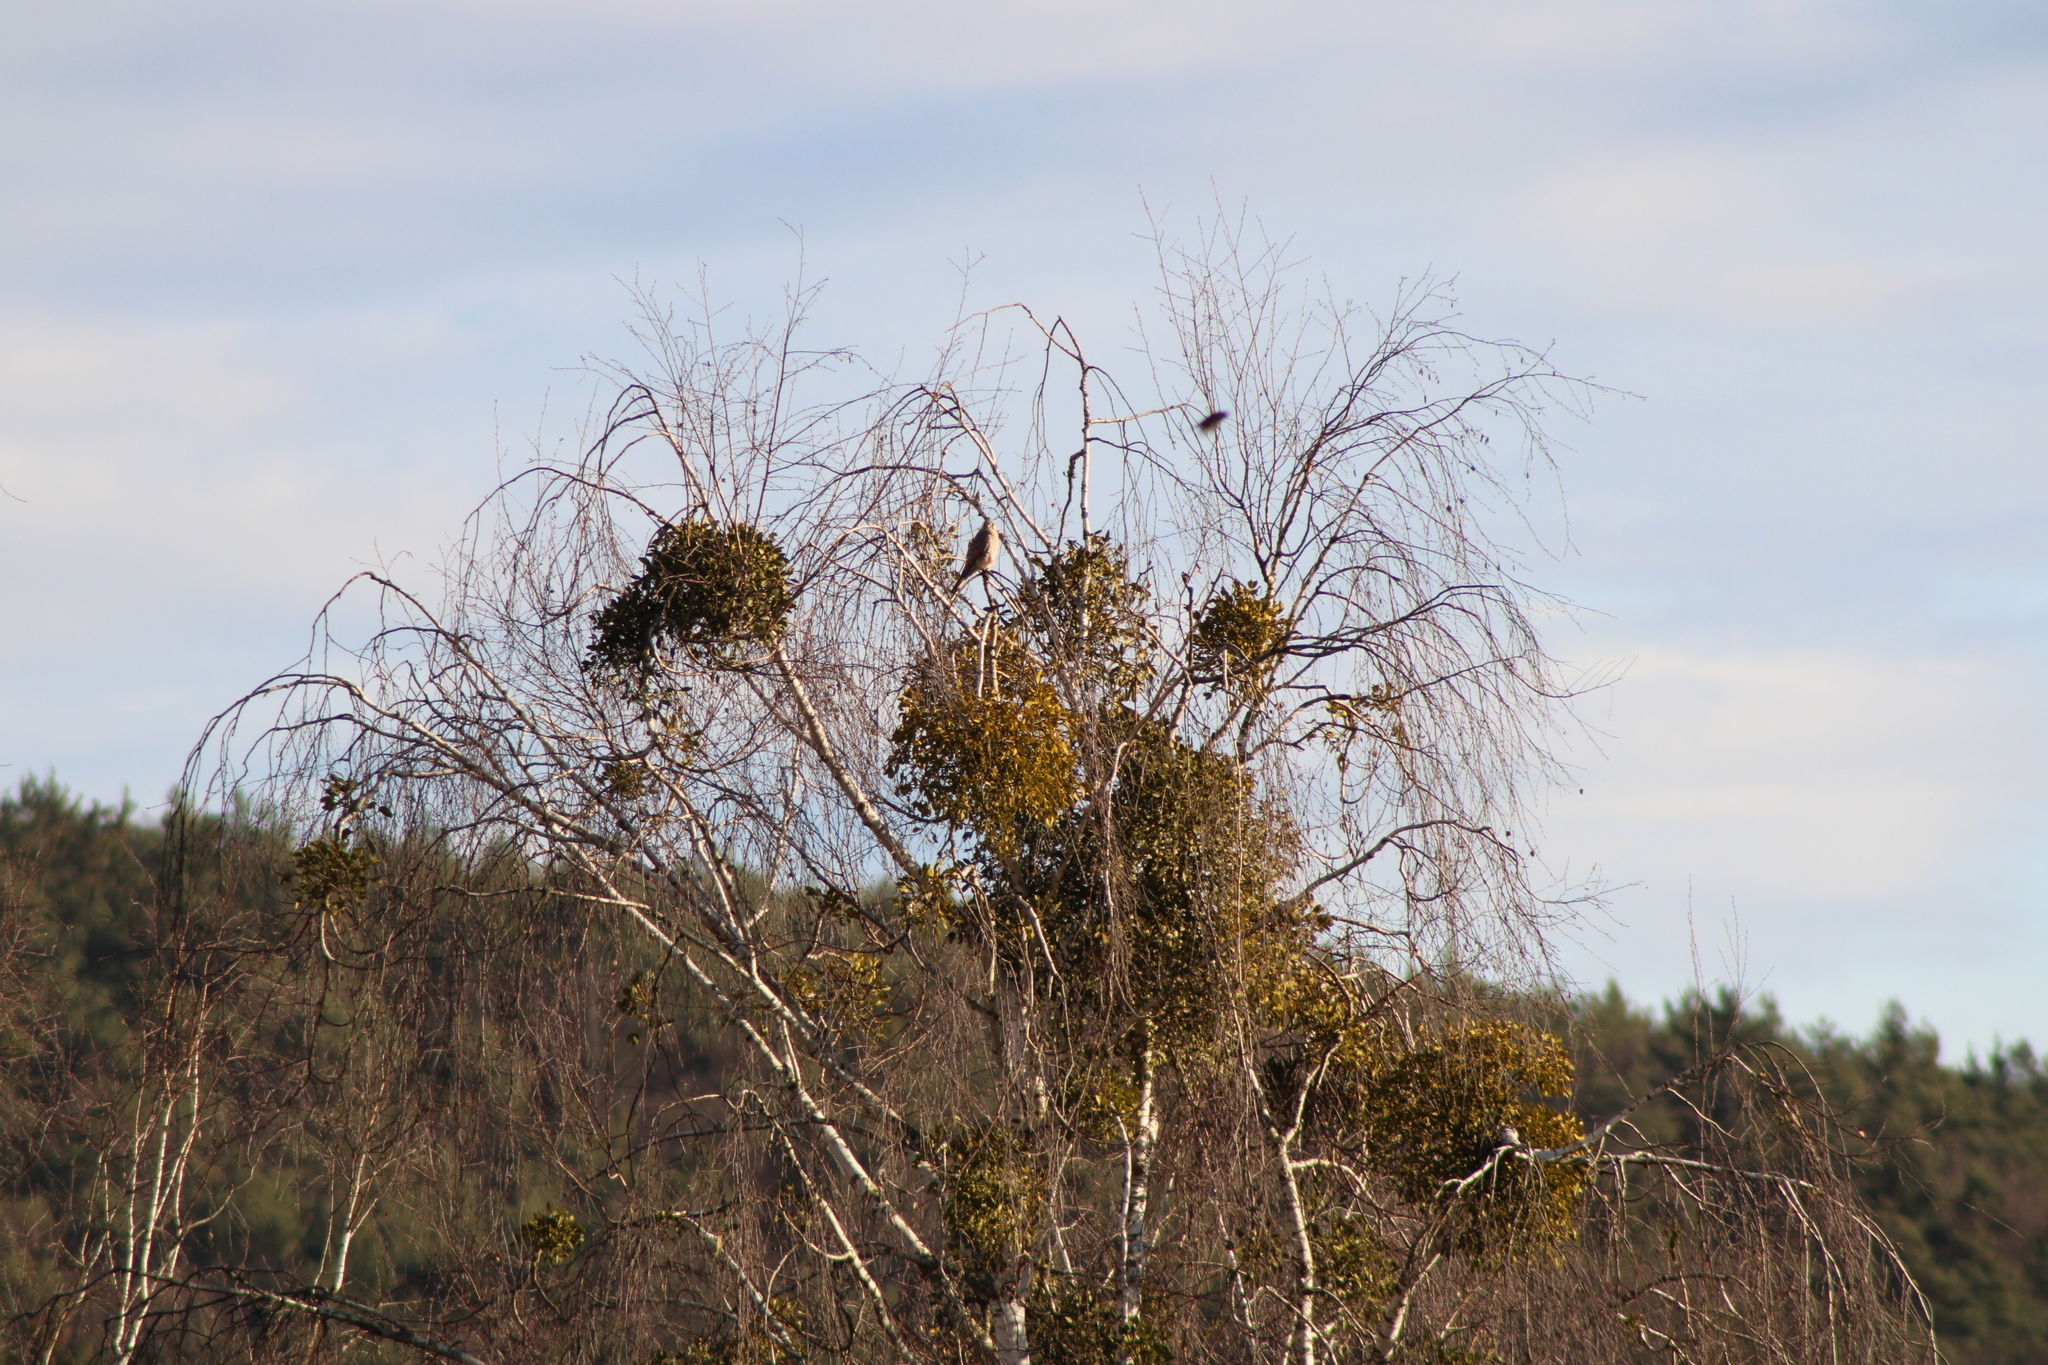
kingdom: Animalia
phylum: Chordata
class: Aves
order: Falconiformes
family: Falconidae
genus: Falco
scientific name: Falco tinnunculus
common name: Common kestrel
